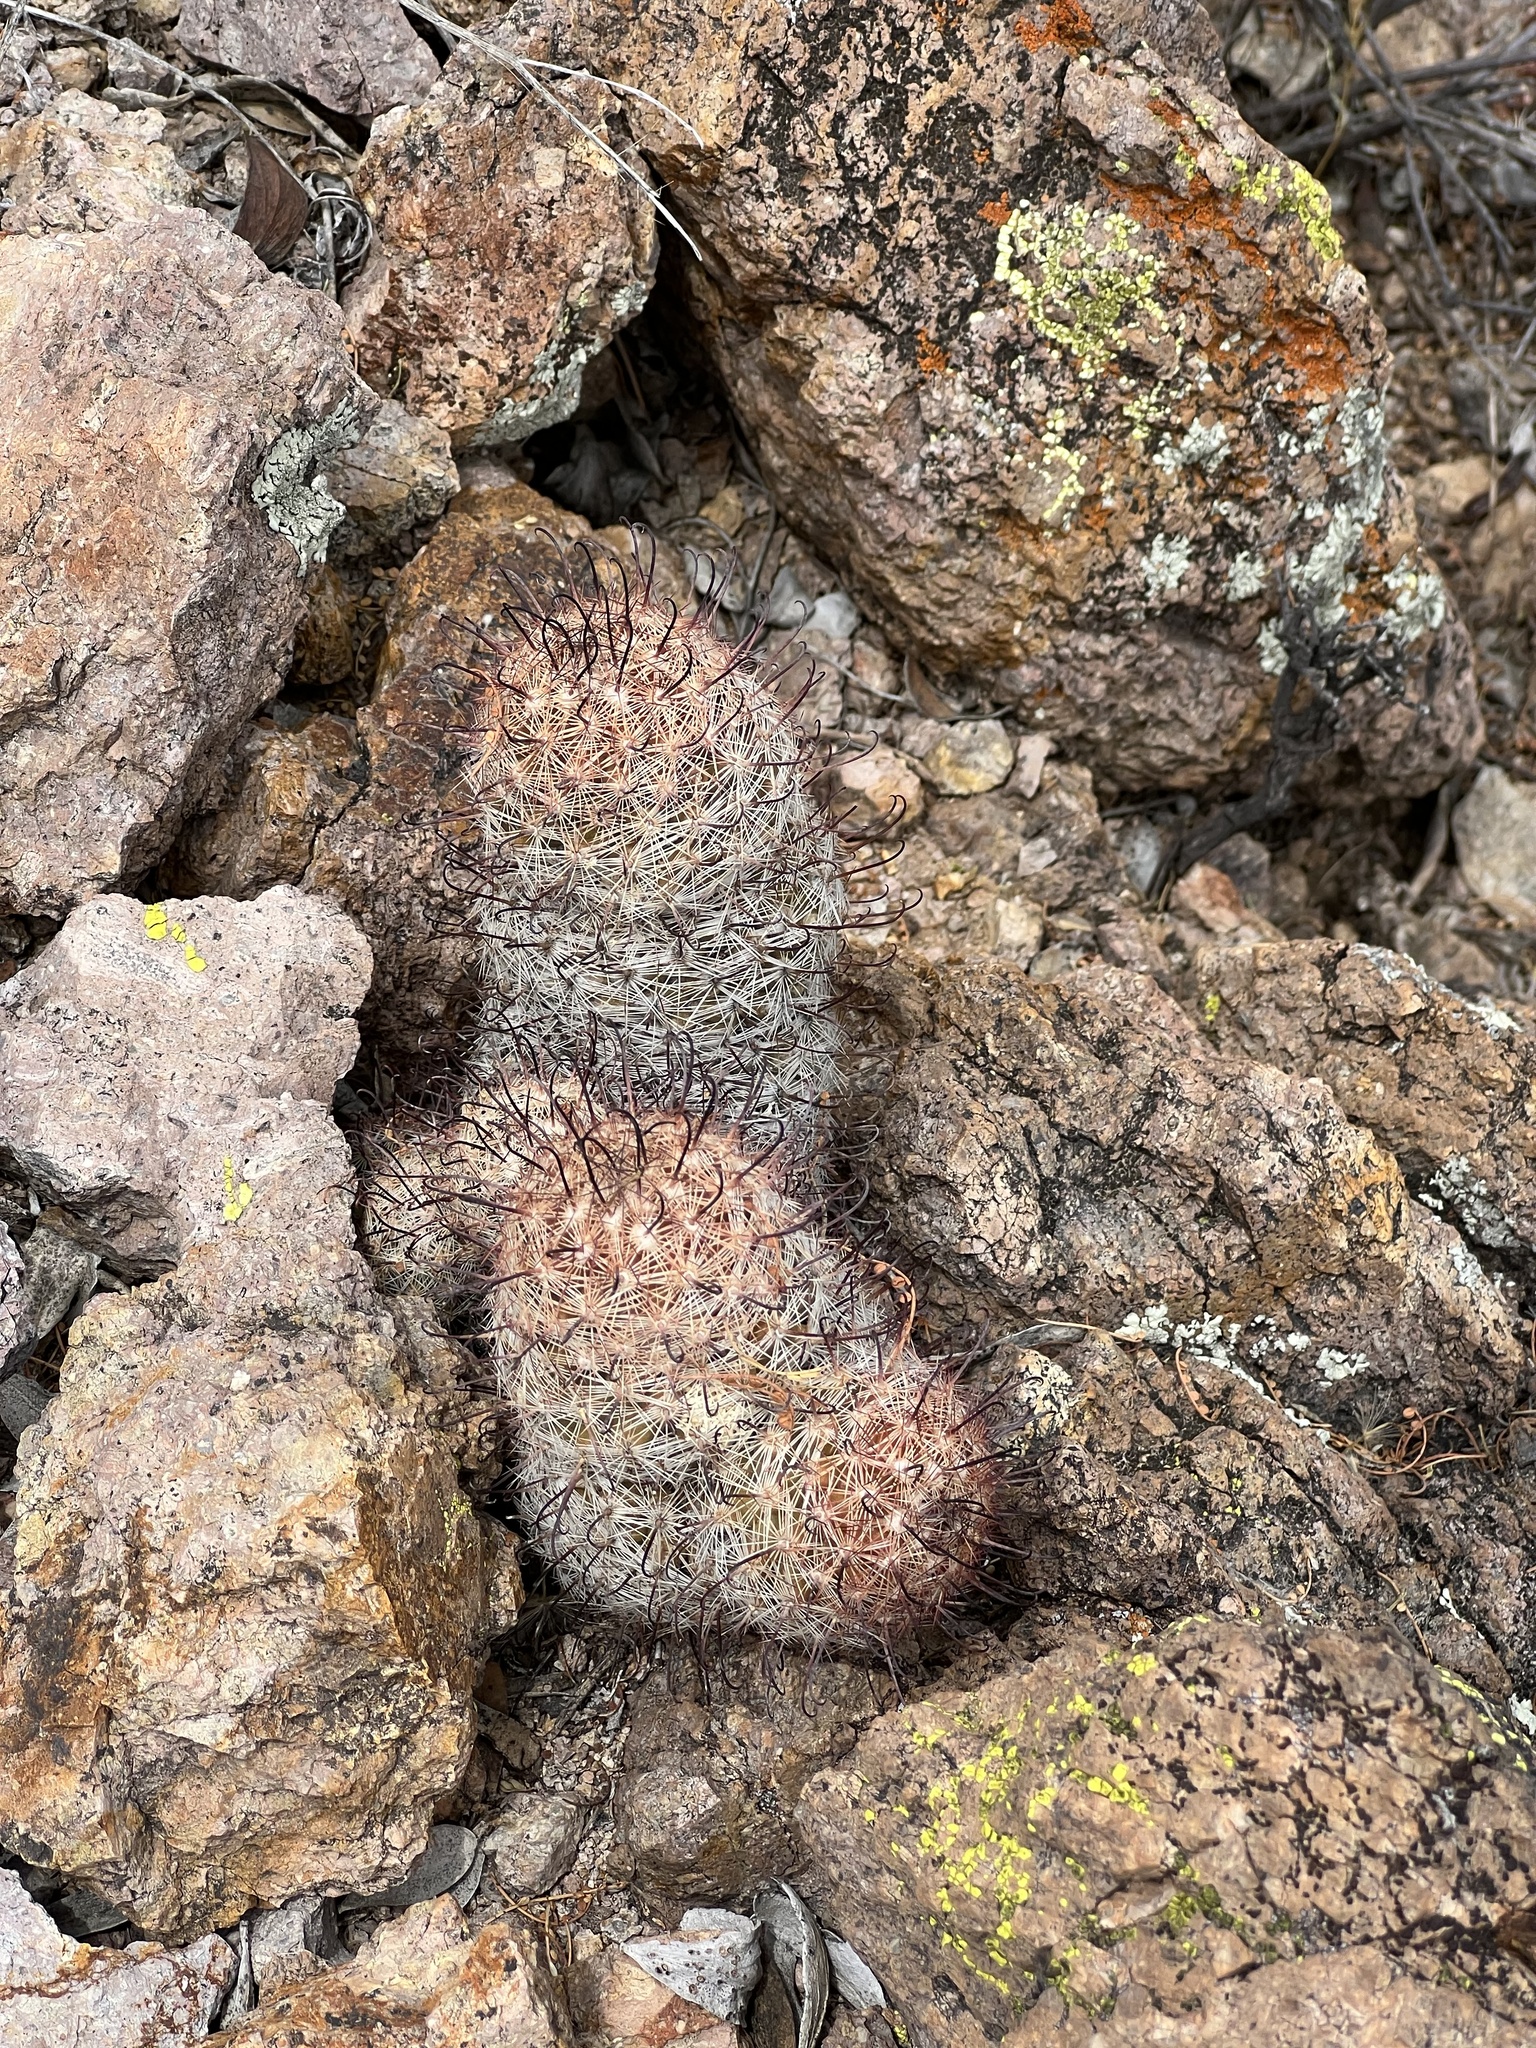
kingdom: Plantae
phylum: Tracheophyta
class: Magnoliopsida
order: Caryophyllales
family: Cactaceae
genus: Cochemiea
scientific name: Cochemiea grahamii
